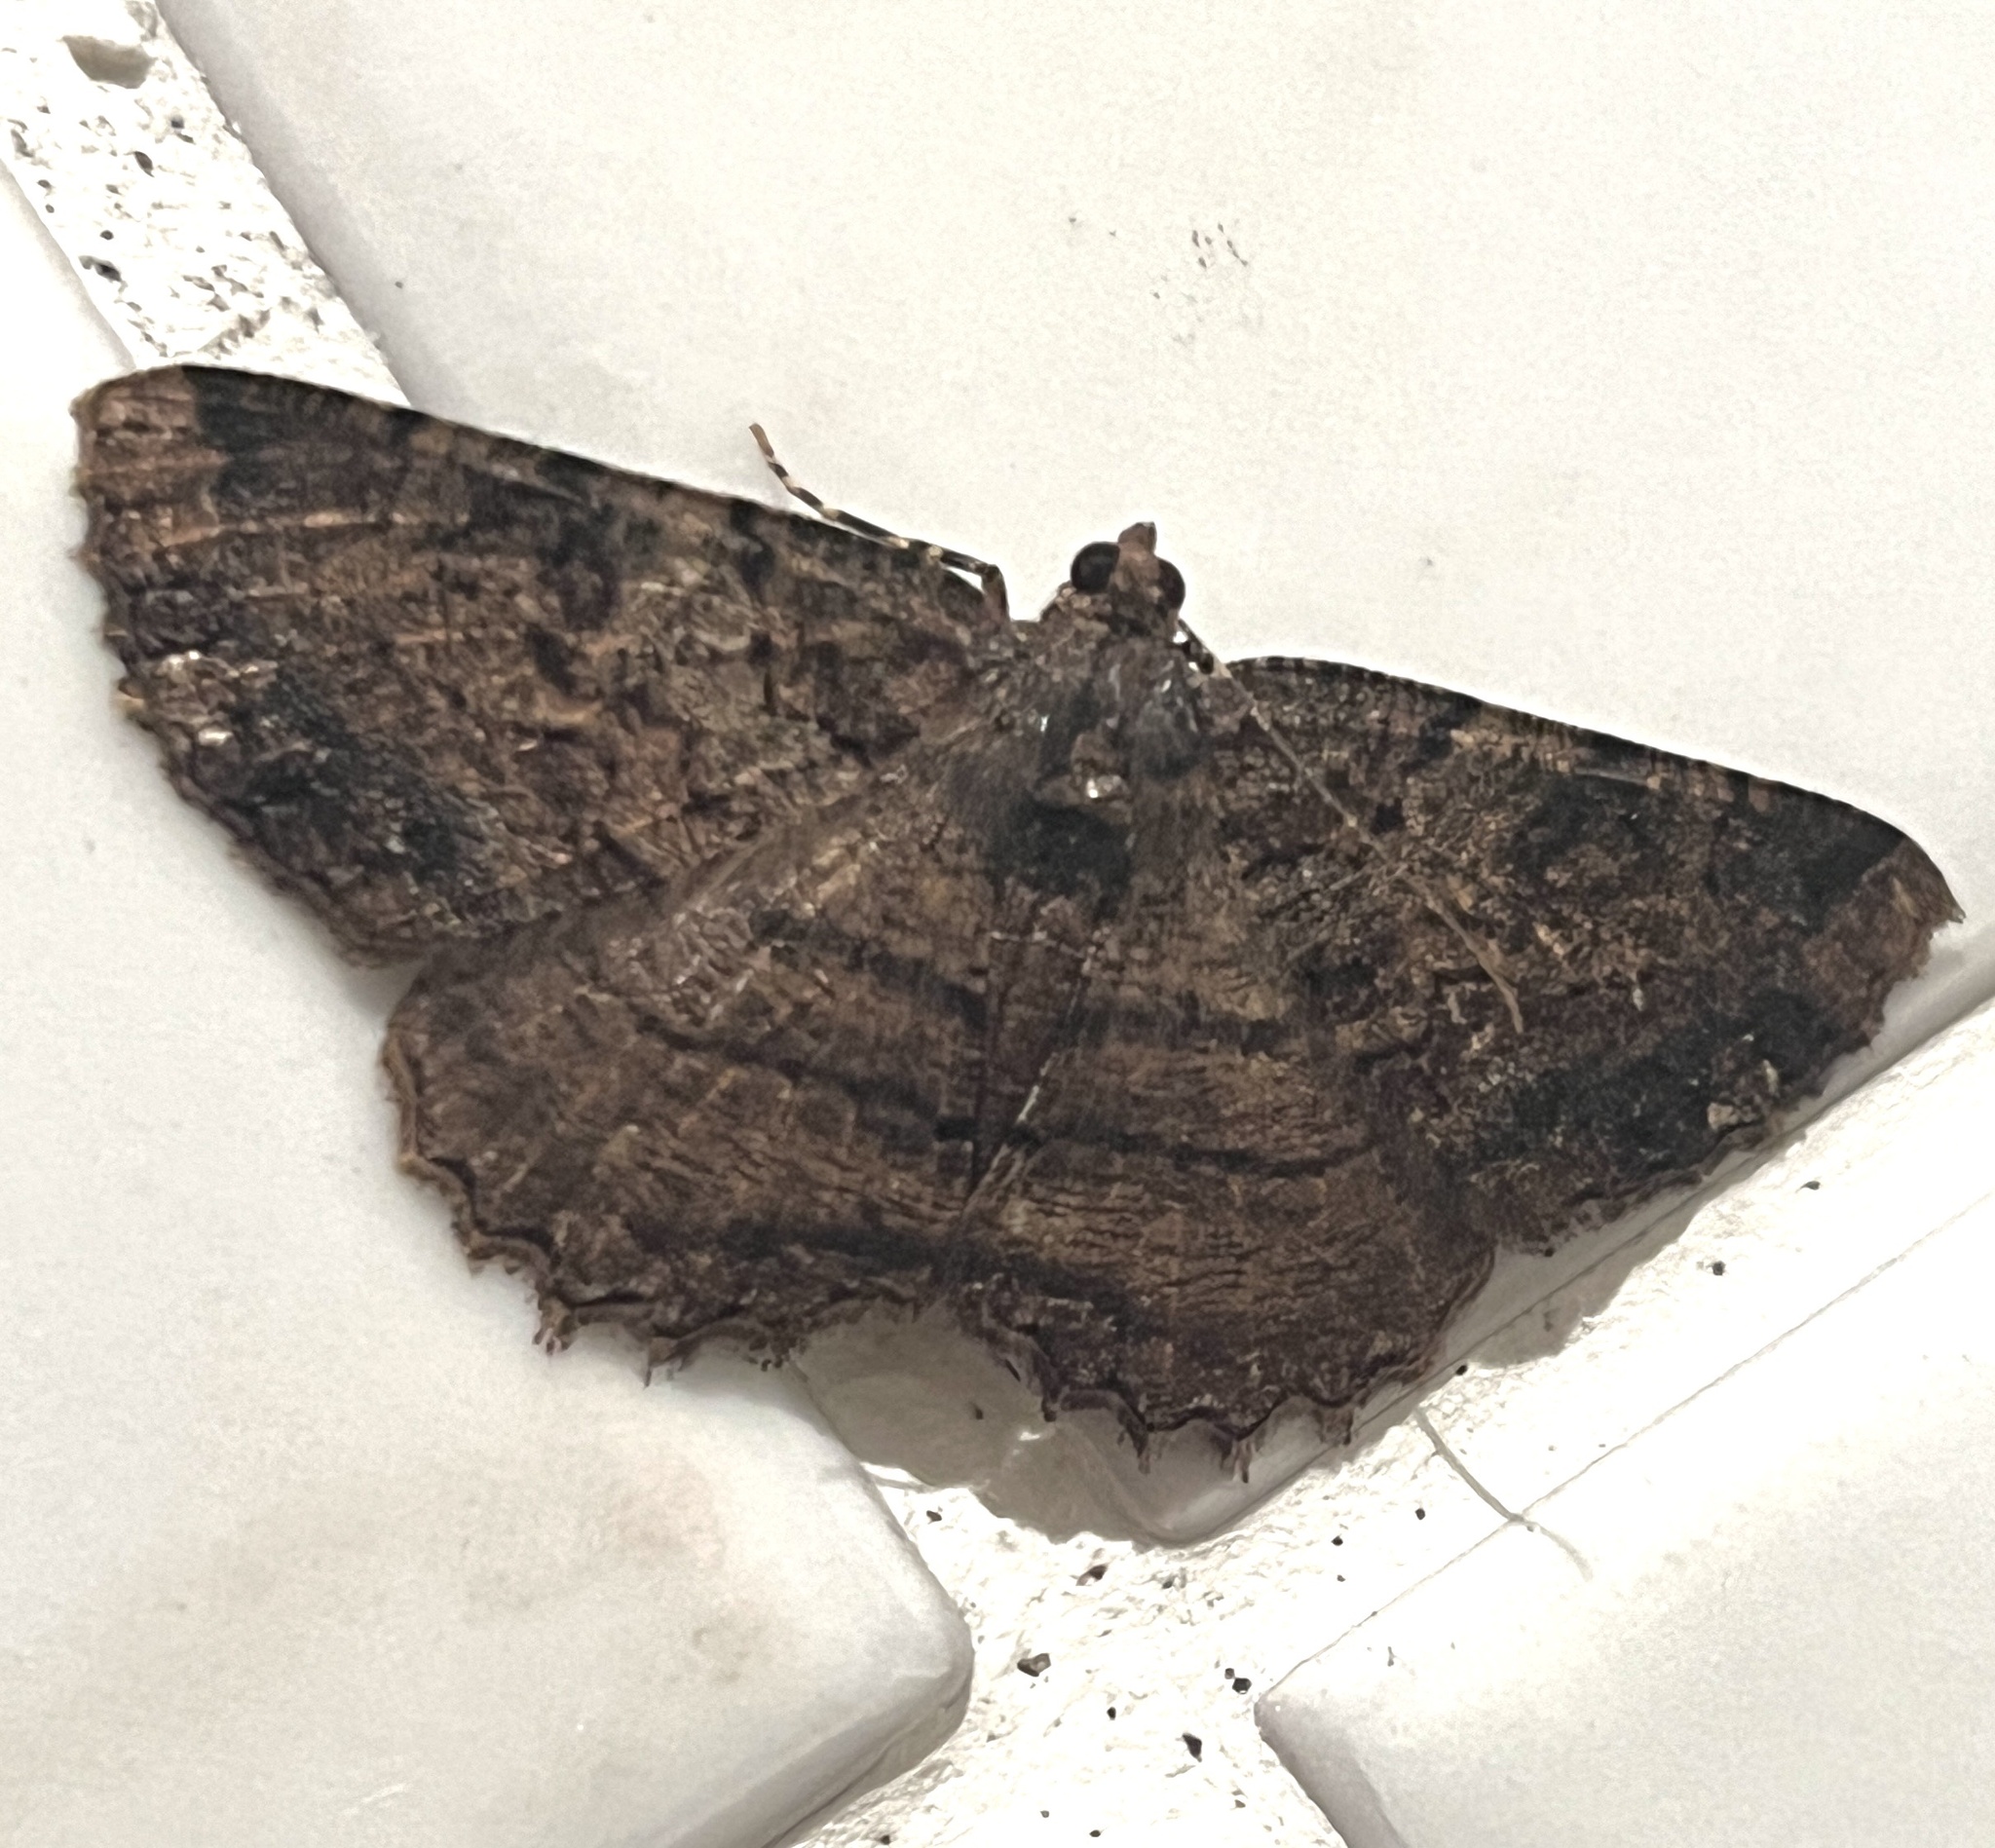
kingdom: Animalia
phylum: Arthropoda
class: Insecta
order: Lepidoptera
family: Geometridae
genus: Xylopteryx
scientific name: Xylopteryx protearia
